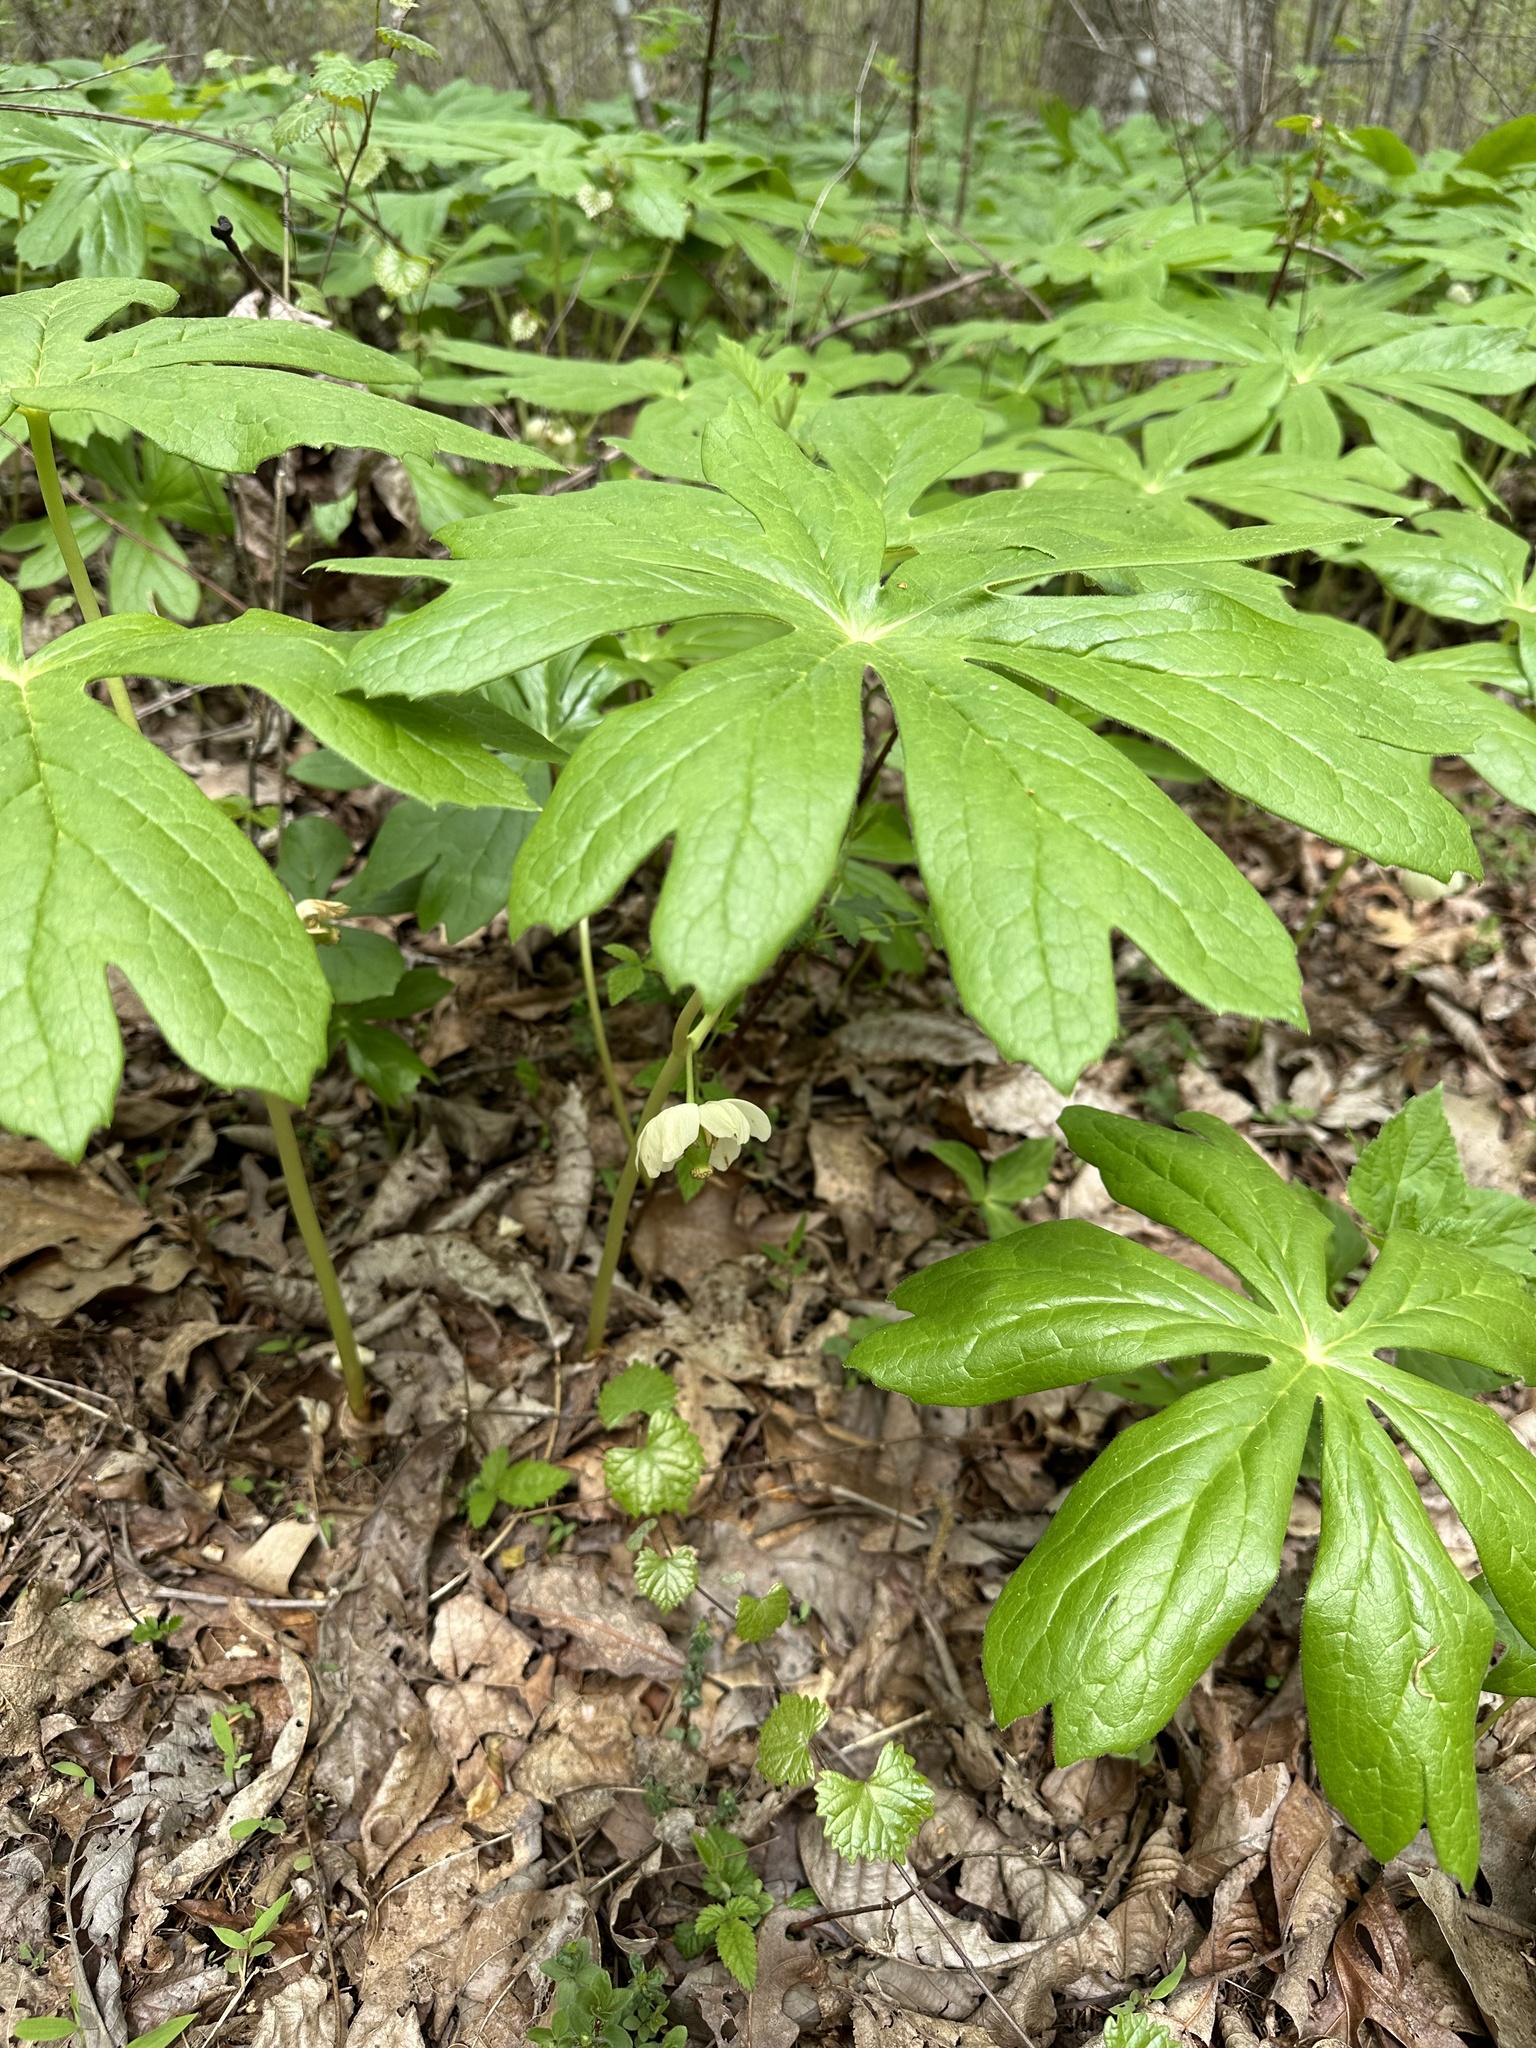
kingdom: Plantae
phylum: Tracheophyta
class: Magnoliopsida
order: Ranunculales
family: Berberidaceae
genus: Podophyllum
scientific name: Podophyllum peltatum
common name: Wild mandrake
